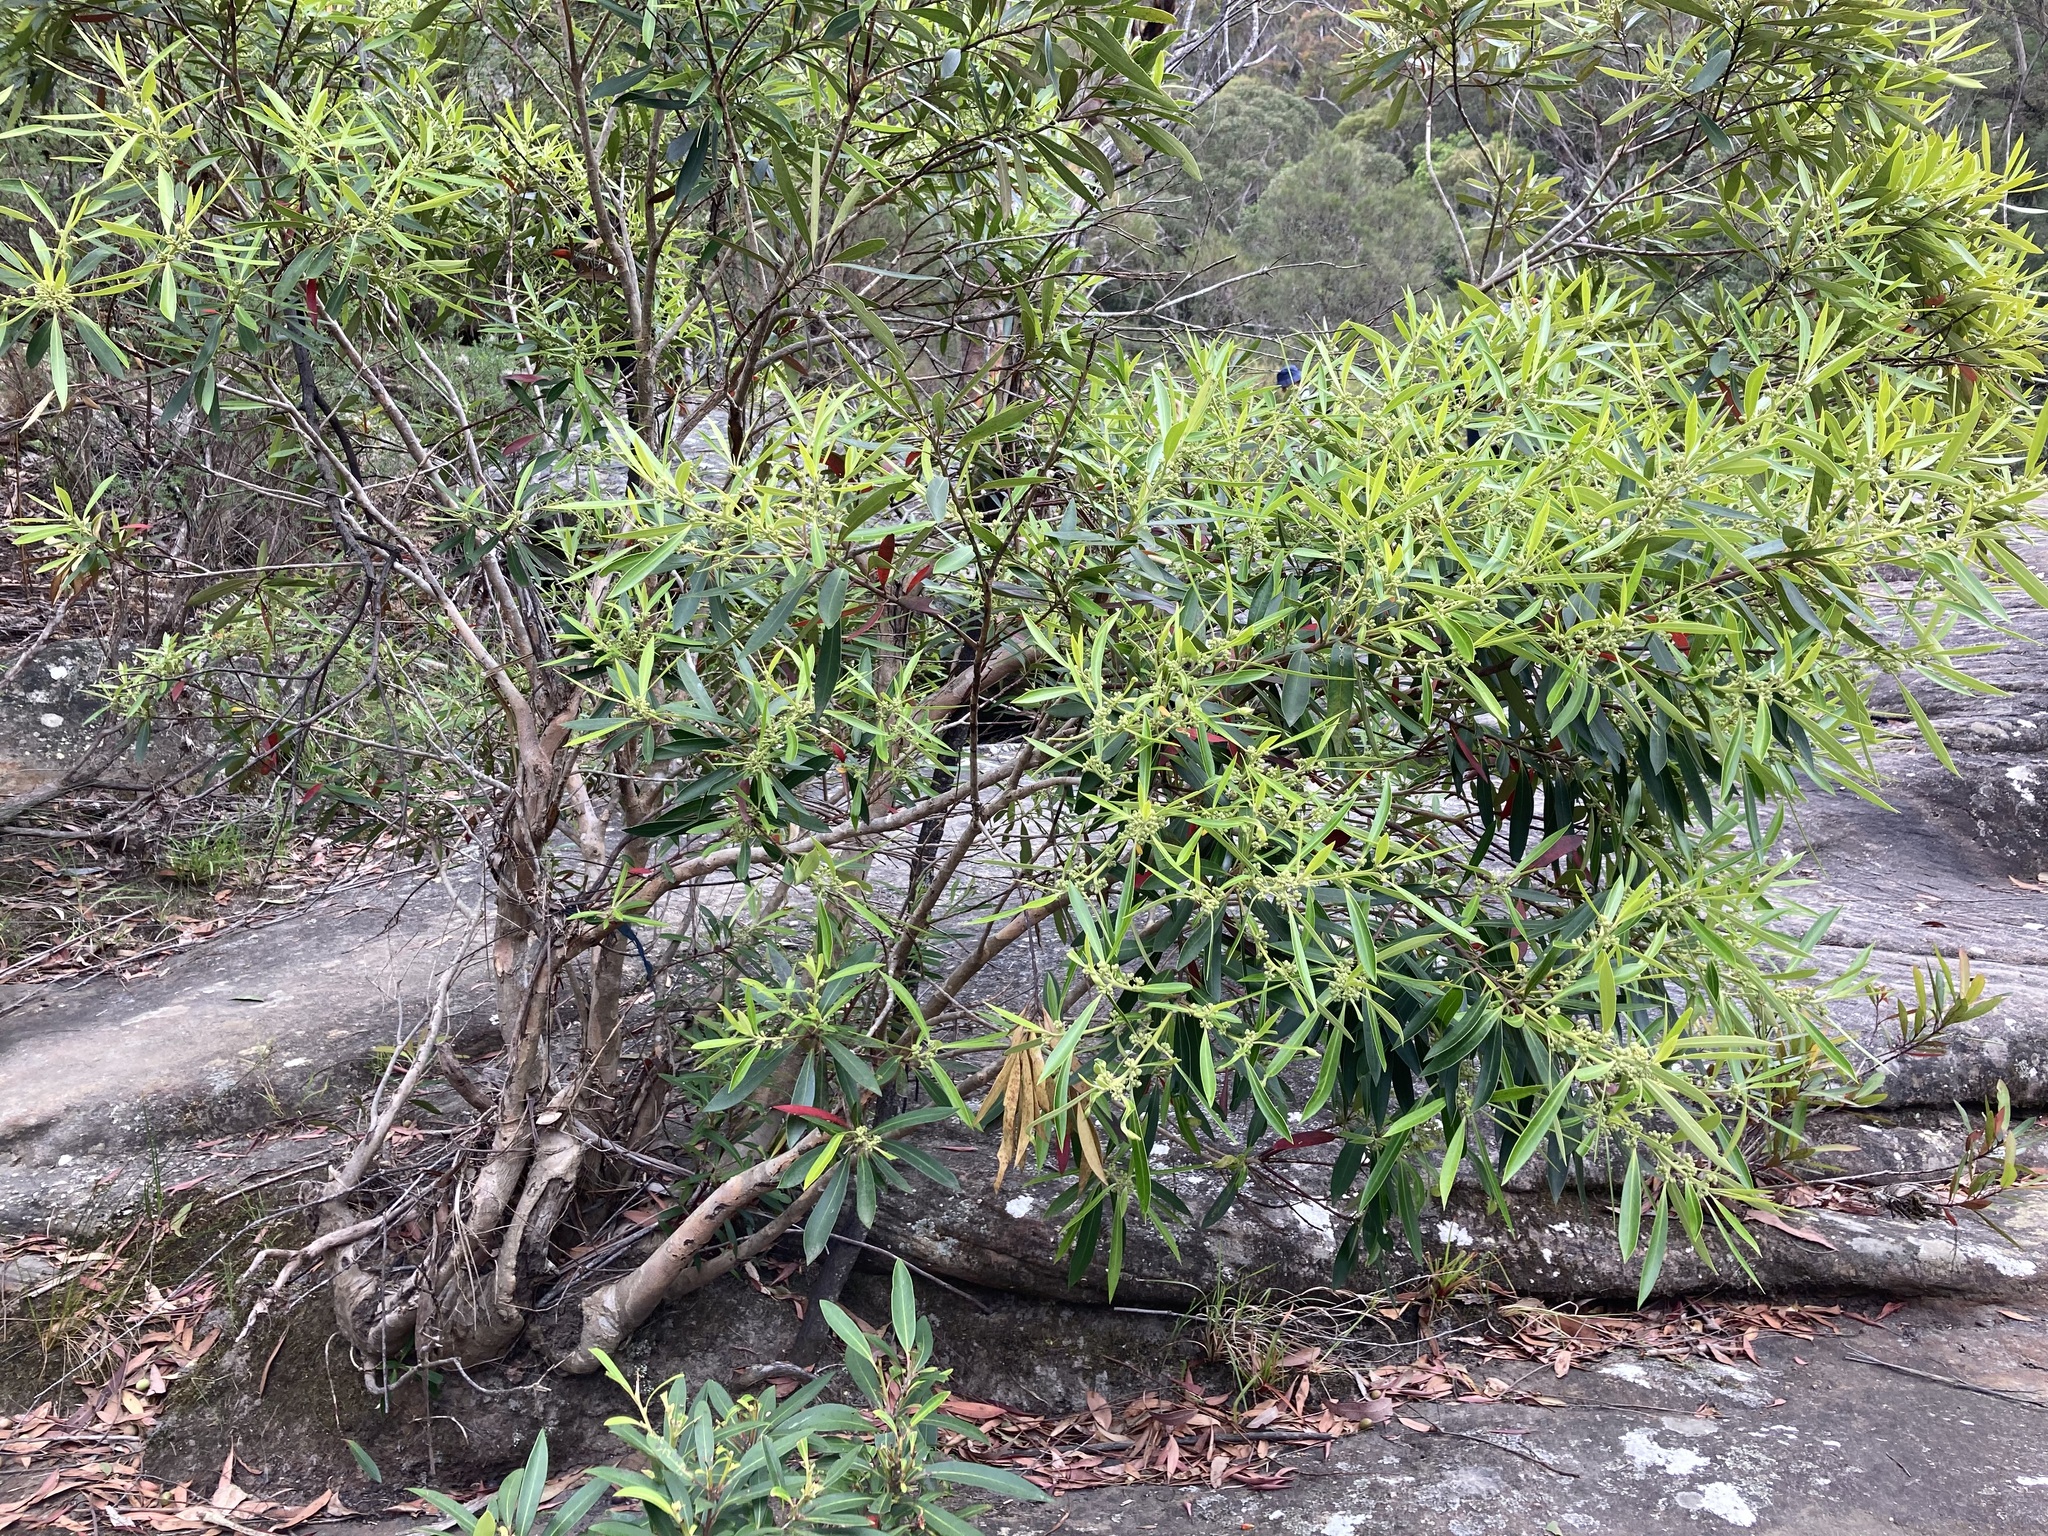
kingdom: Plantae
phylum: Tracheophyta
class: Magnoliopsida
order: Myrtales
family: Myrtaceae
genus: Tristaniopsis
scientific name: Tristaniopsis laurina
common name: Water-gum
